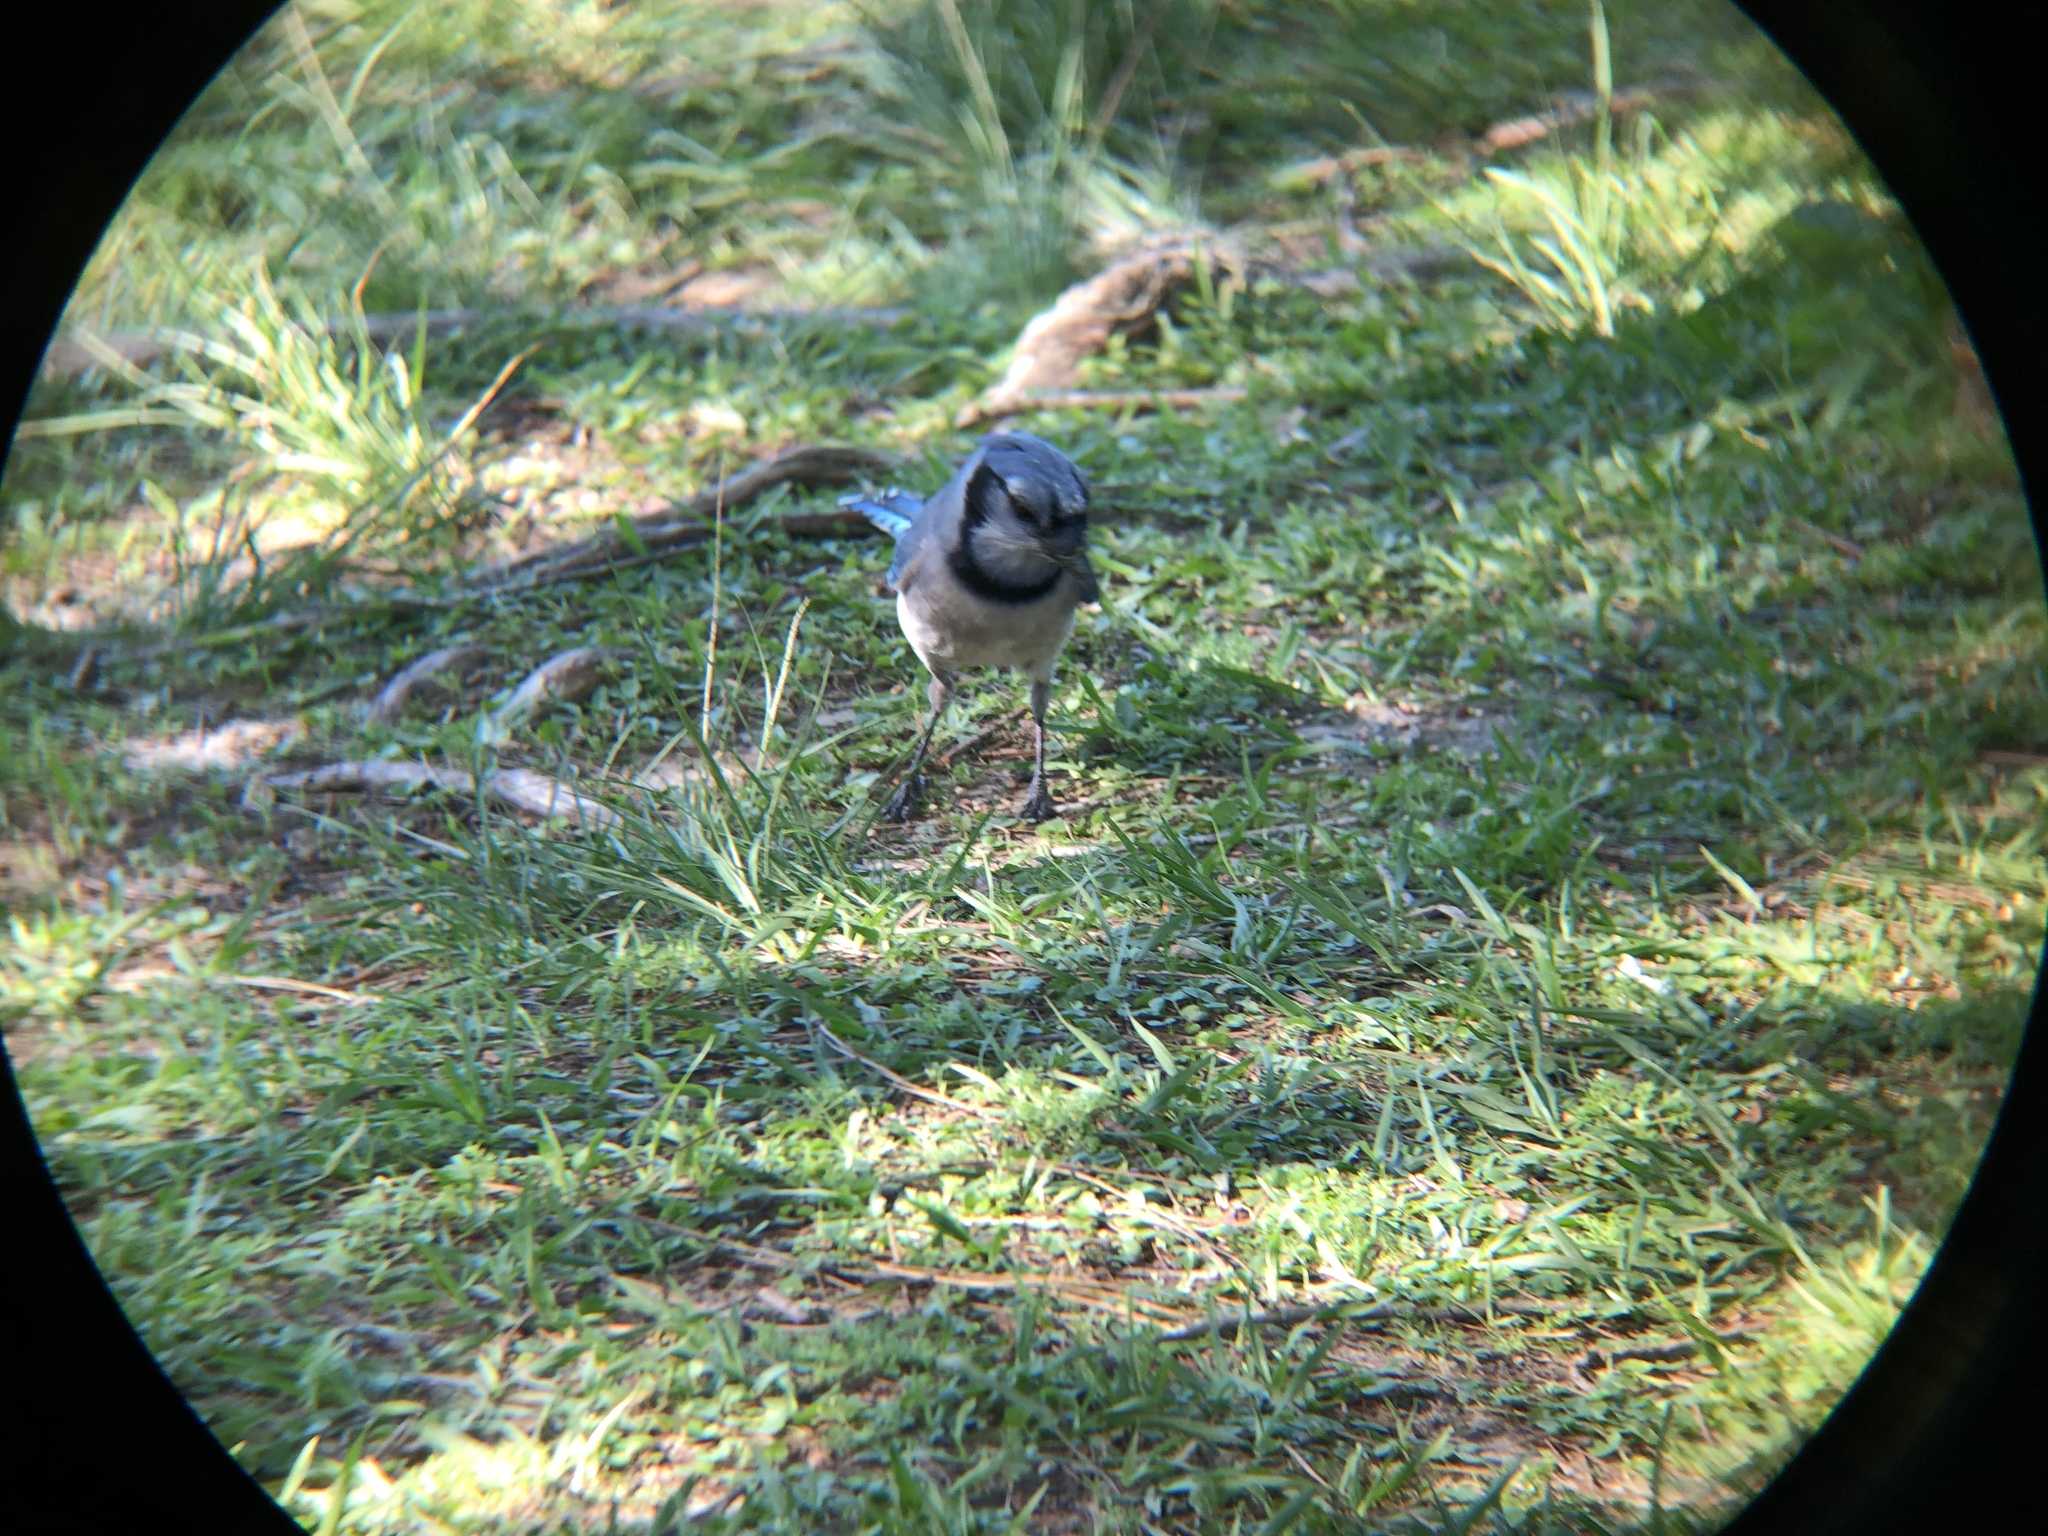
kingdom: Animalia
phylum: Chordata
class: Aves
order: Passeriformes
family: Corvidae
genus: Cyanocitta
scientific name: Cyanocitta cristata
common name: Blue jay
